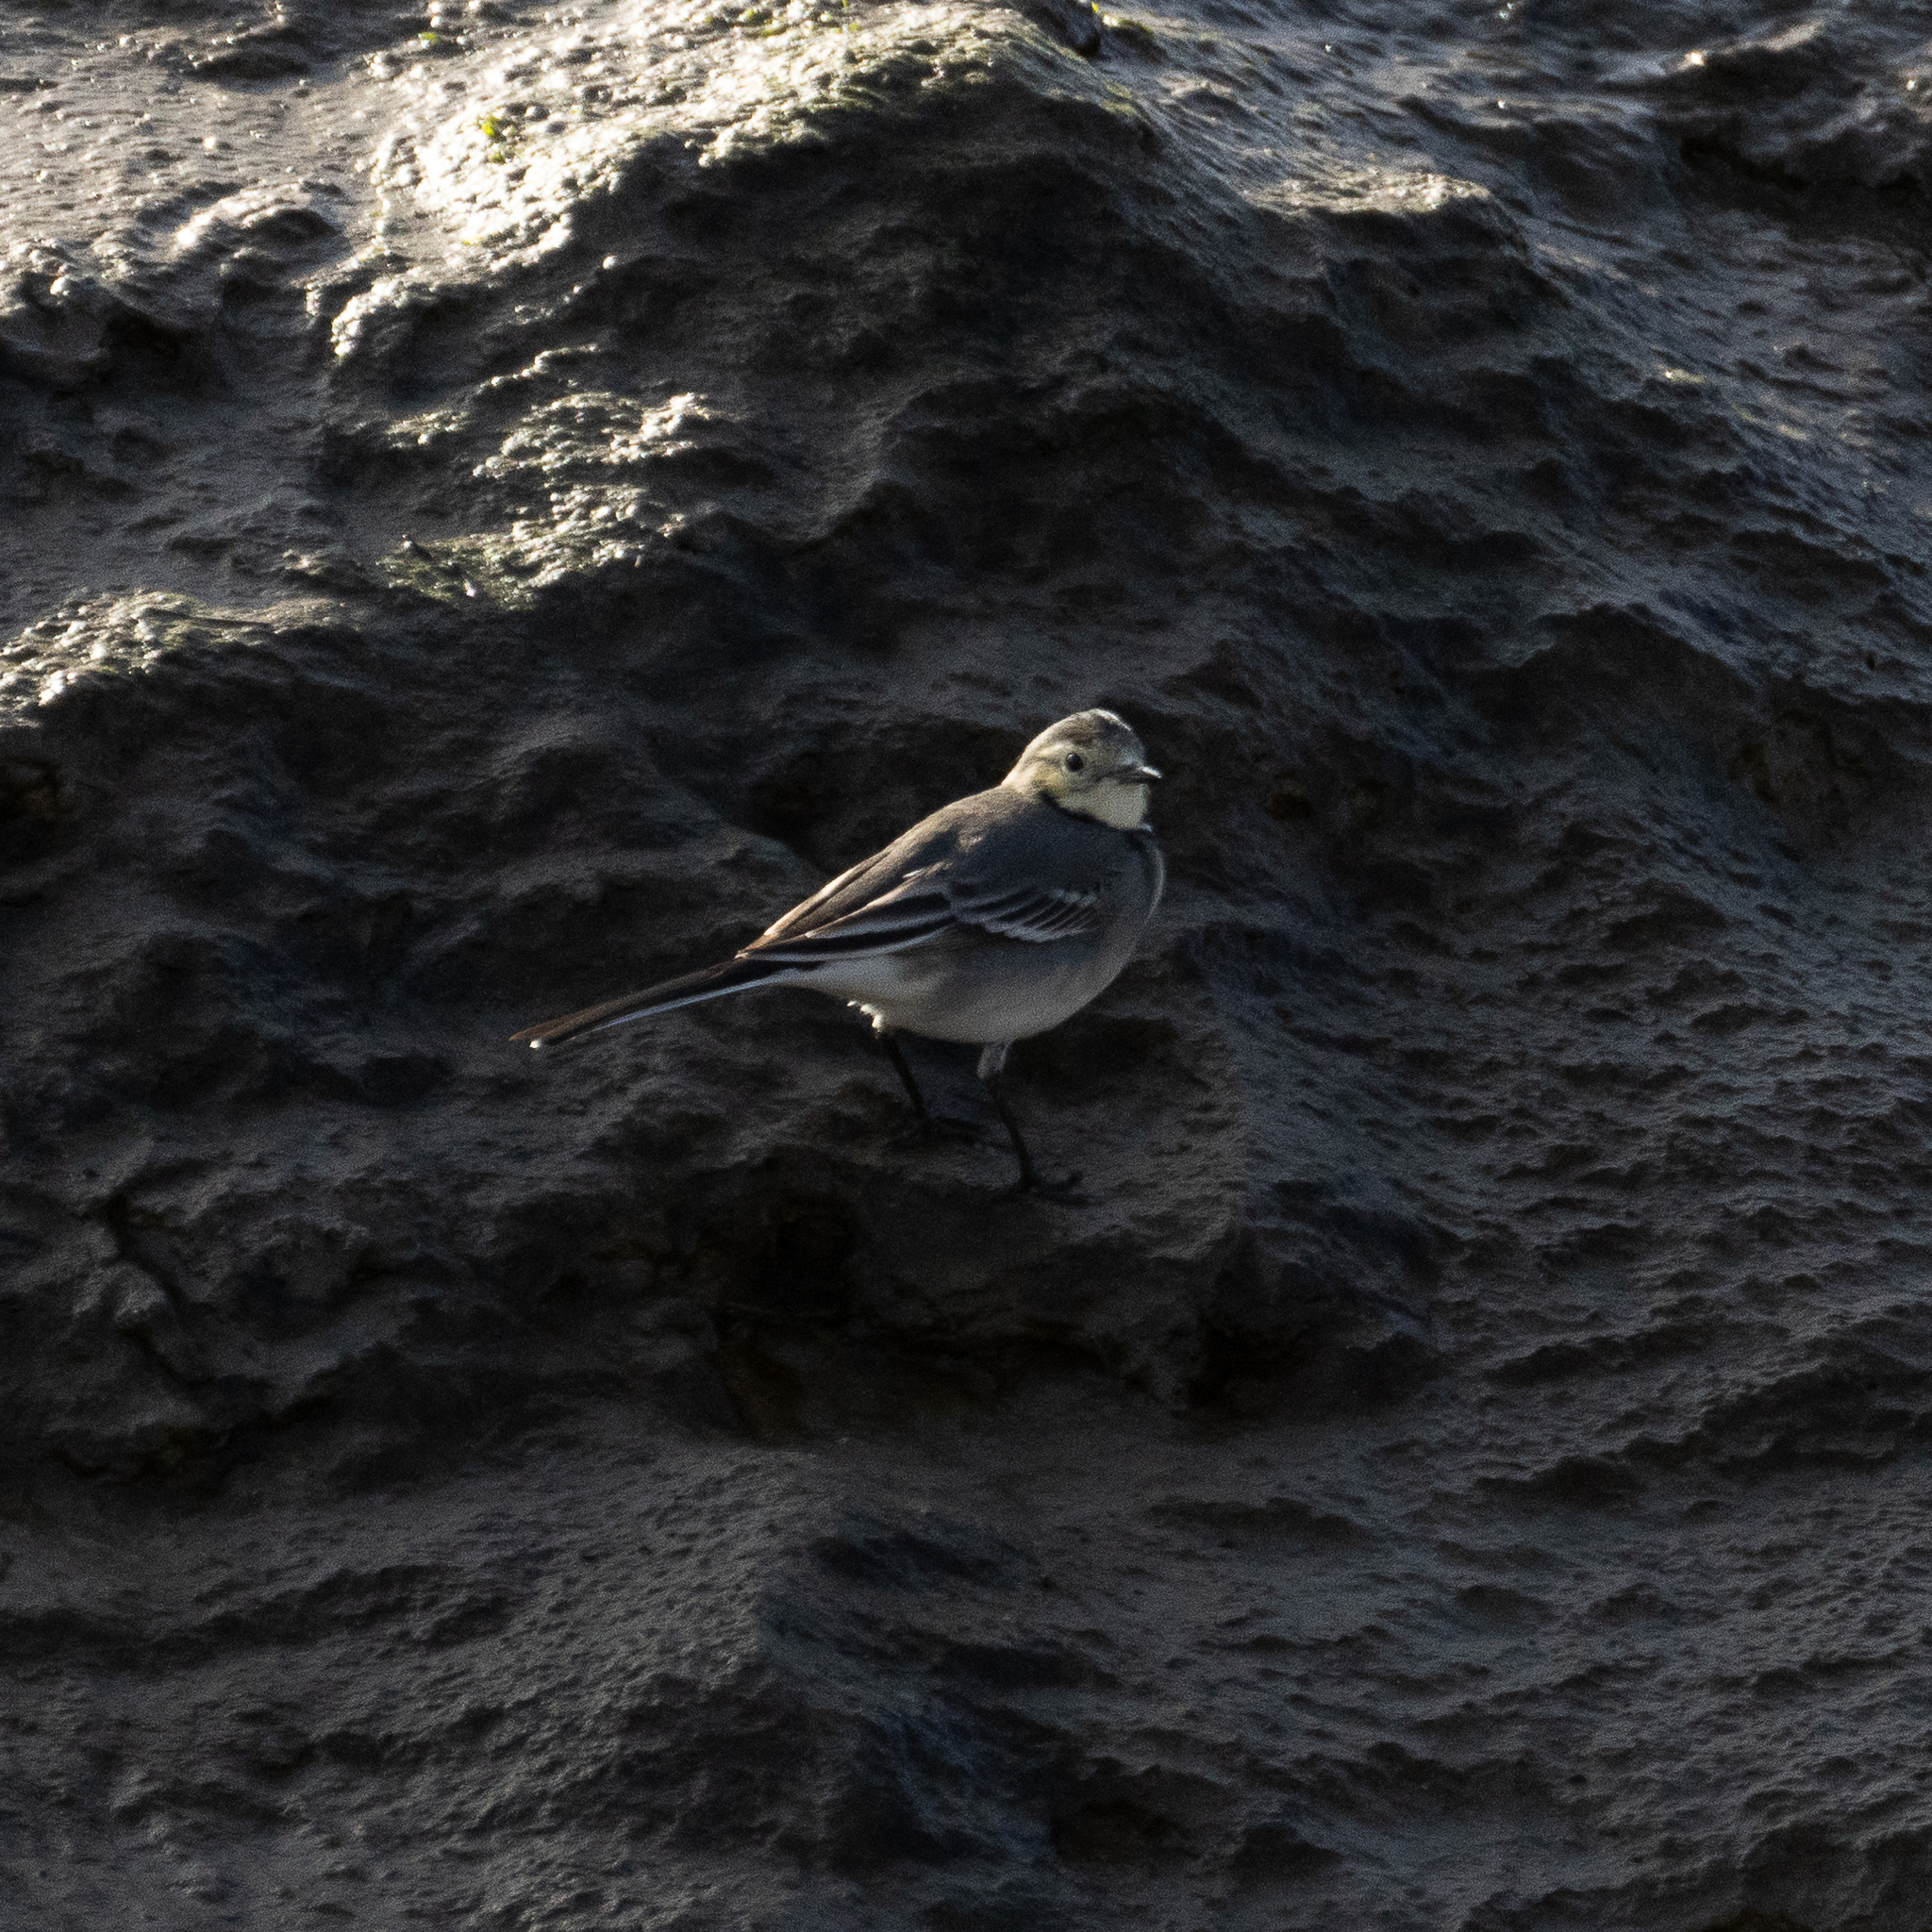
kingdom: Animalia
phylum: Chordata
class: Aves
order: Passeriformes
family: Motacillidae
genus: Motacilla
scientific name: Motacilla alba
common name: White wagtail
